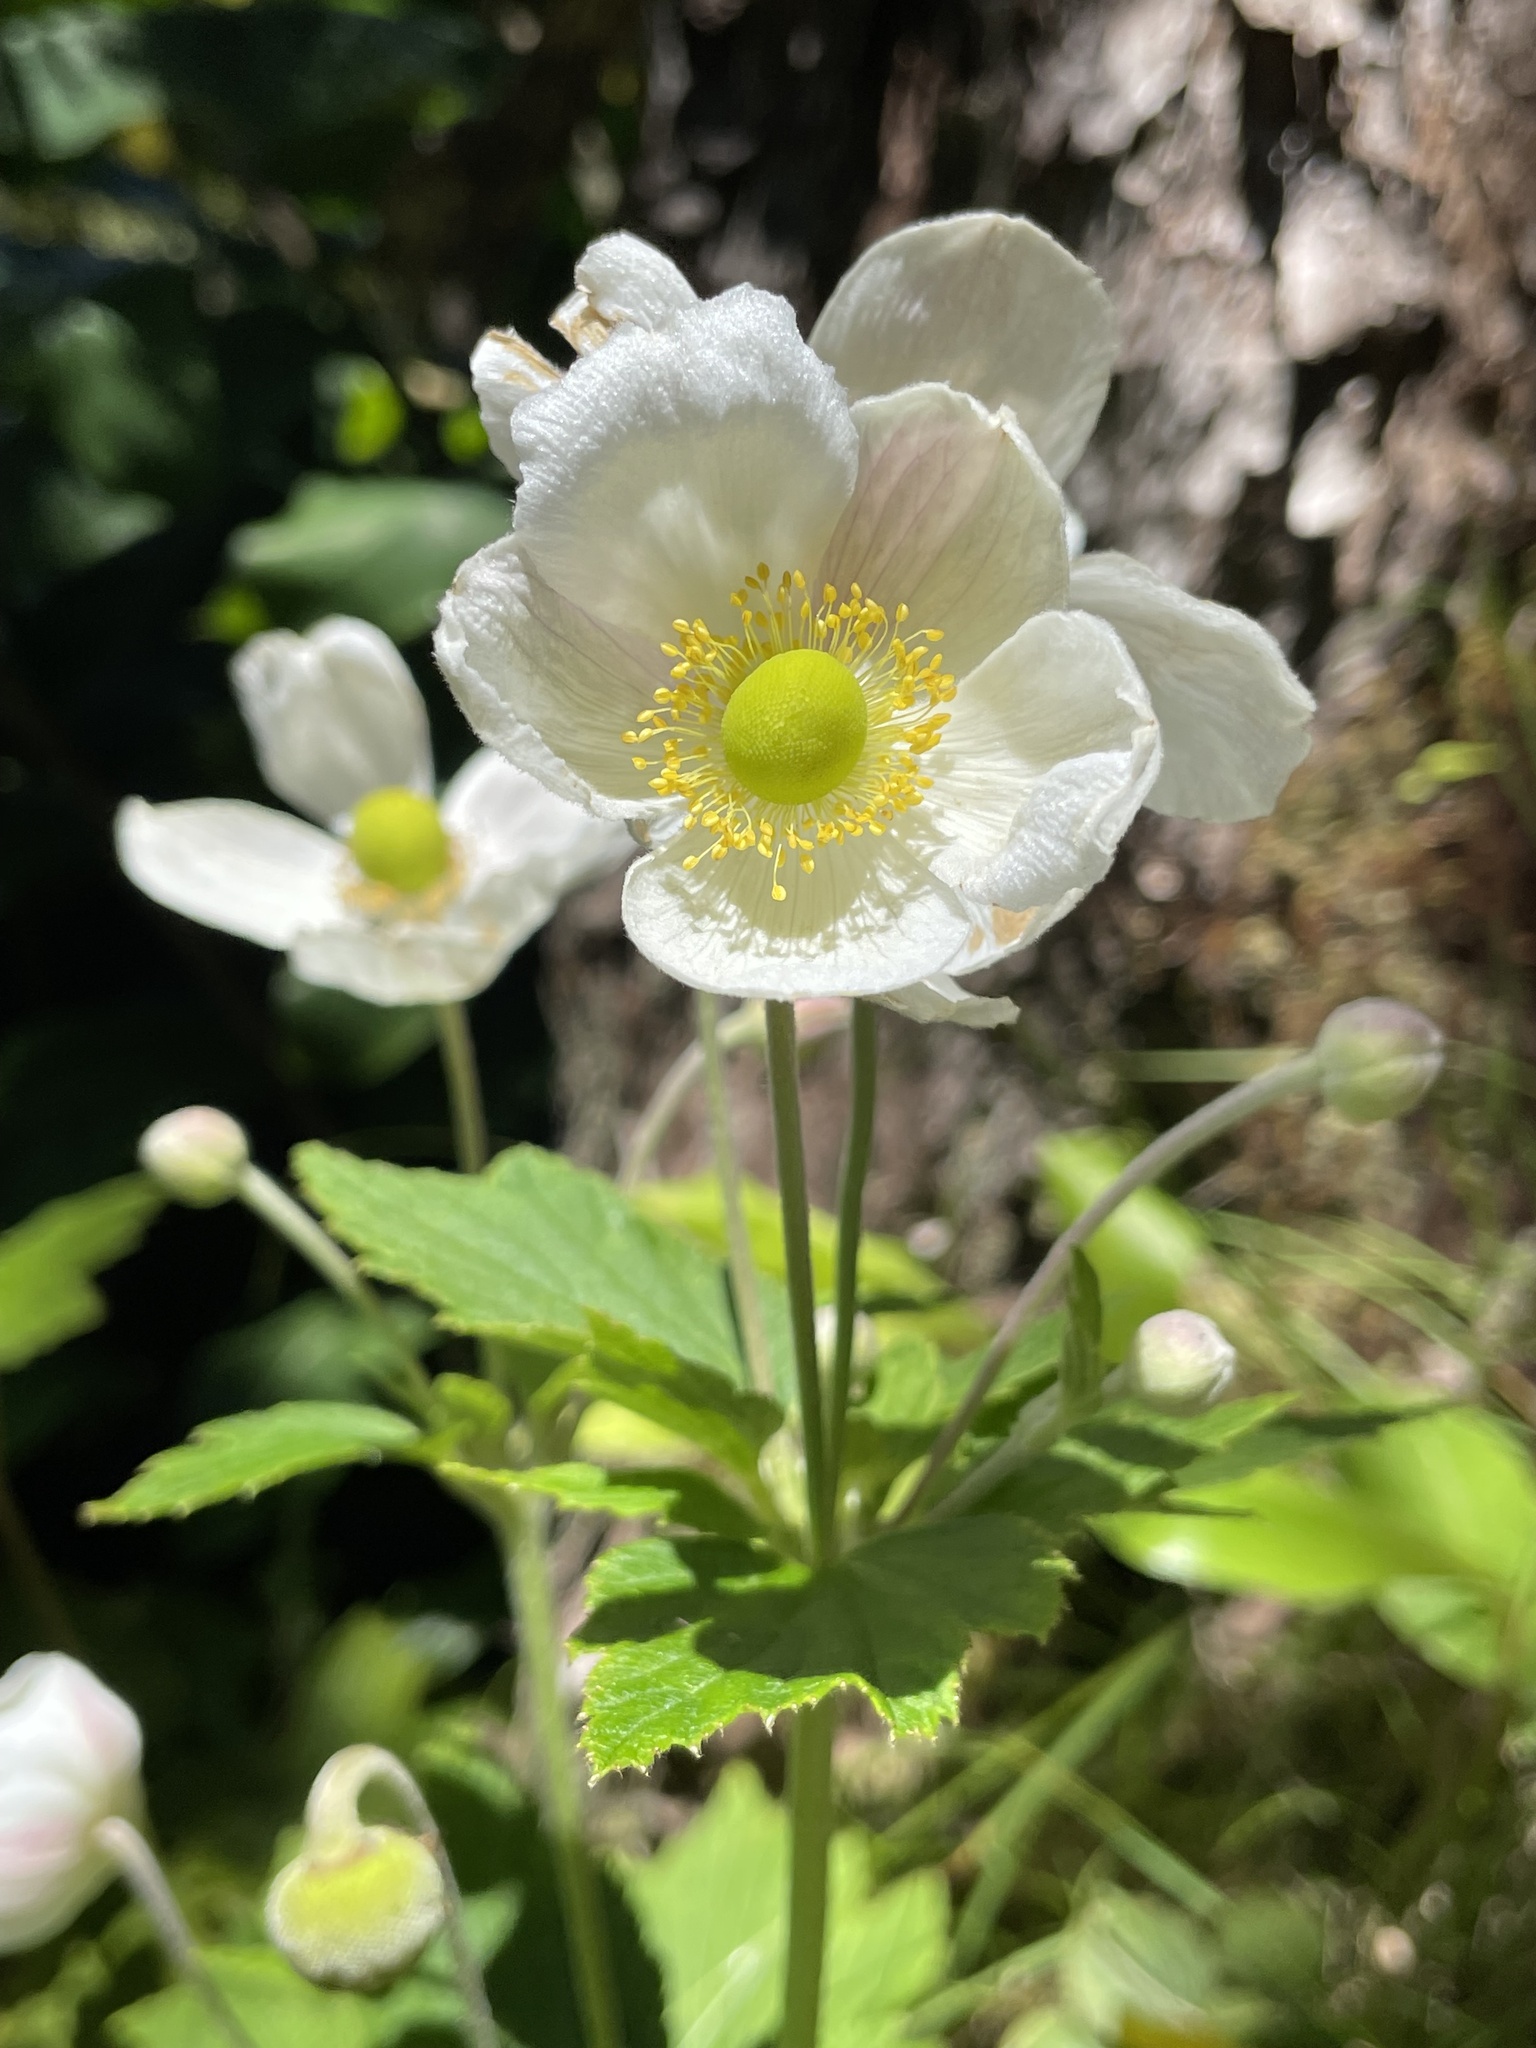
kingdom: Plantae
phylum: Tracheophyta
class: Magnoliopsida
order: Ranunculales
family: Ranunculaceae
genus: Eriocapitella
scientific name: Eriocapitella japonica
